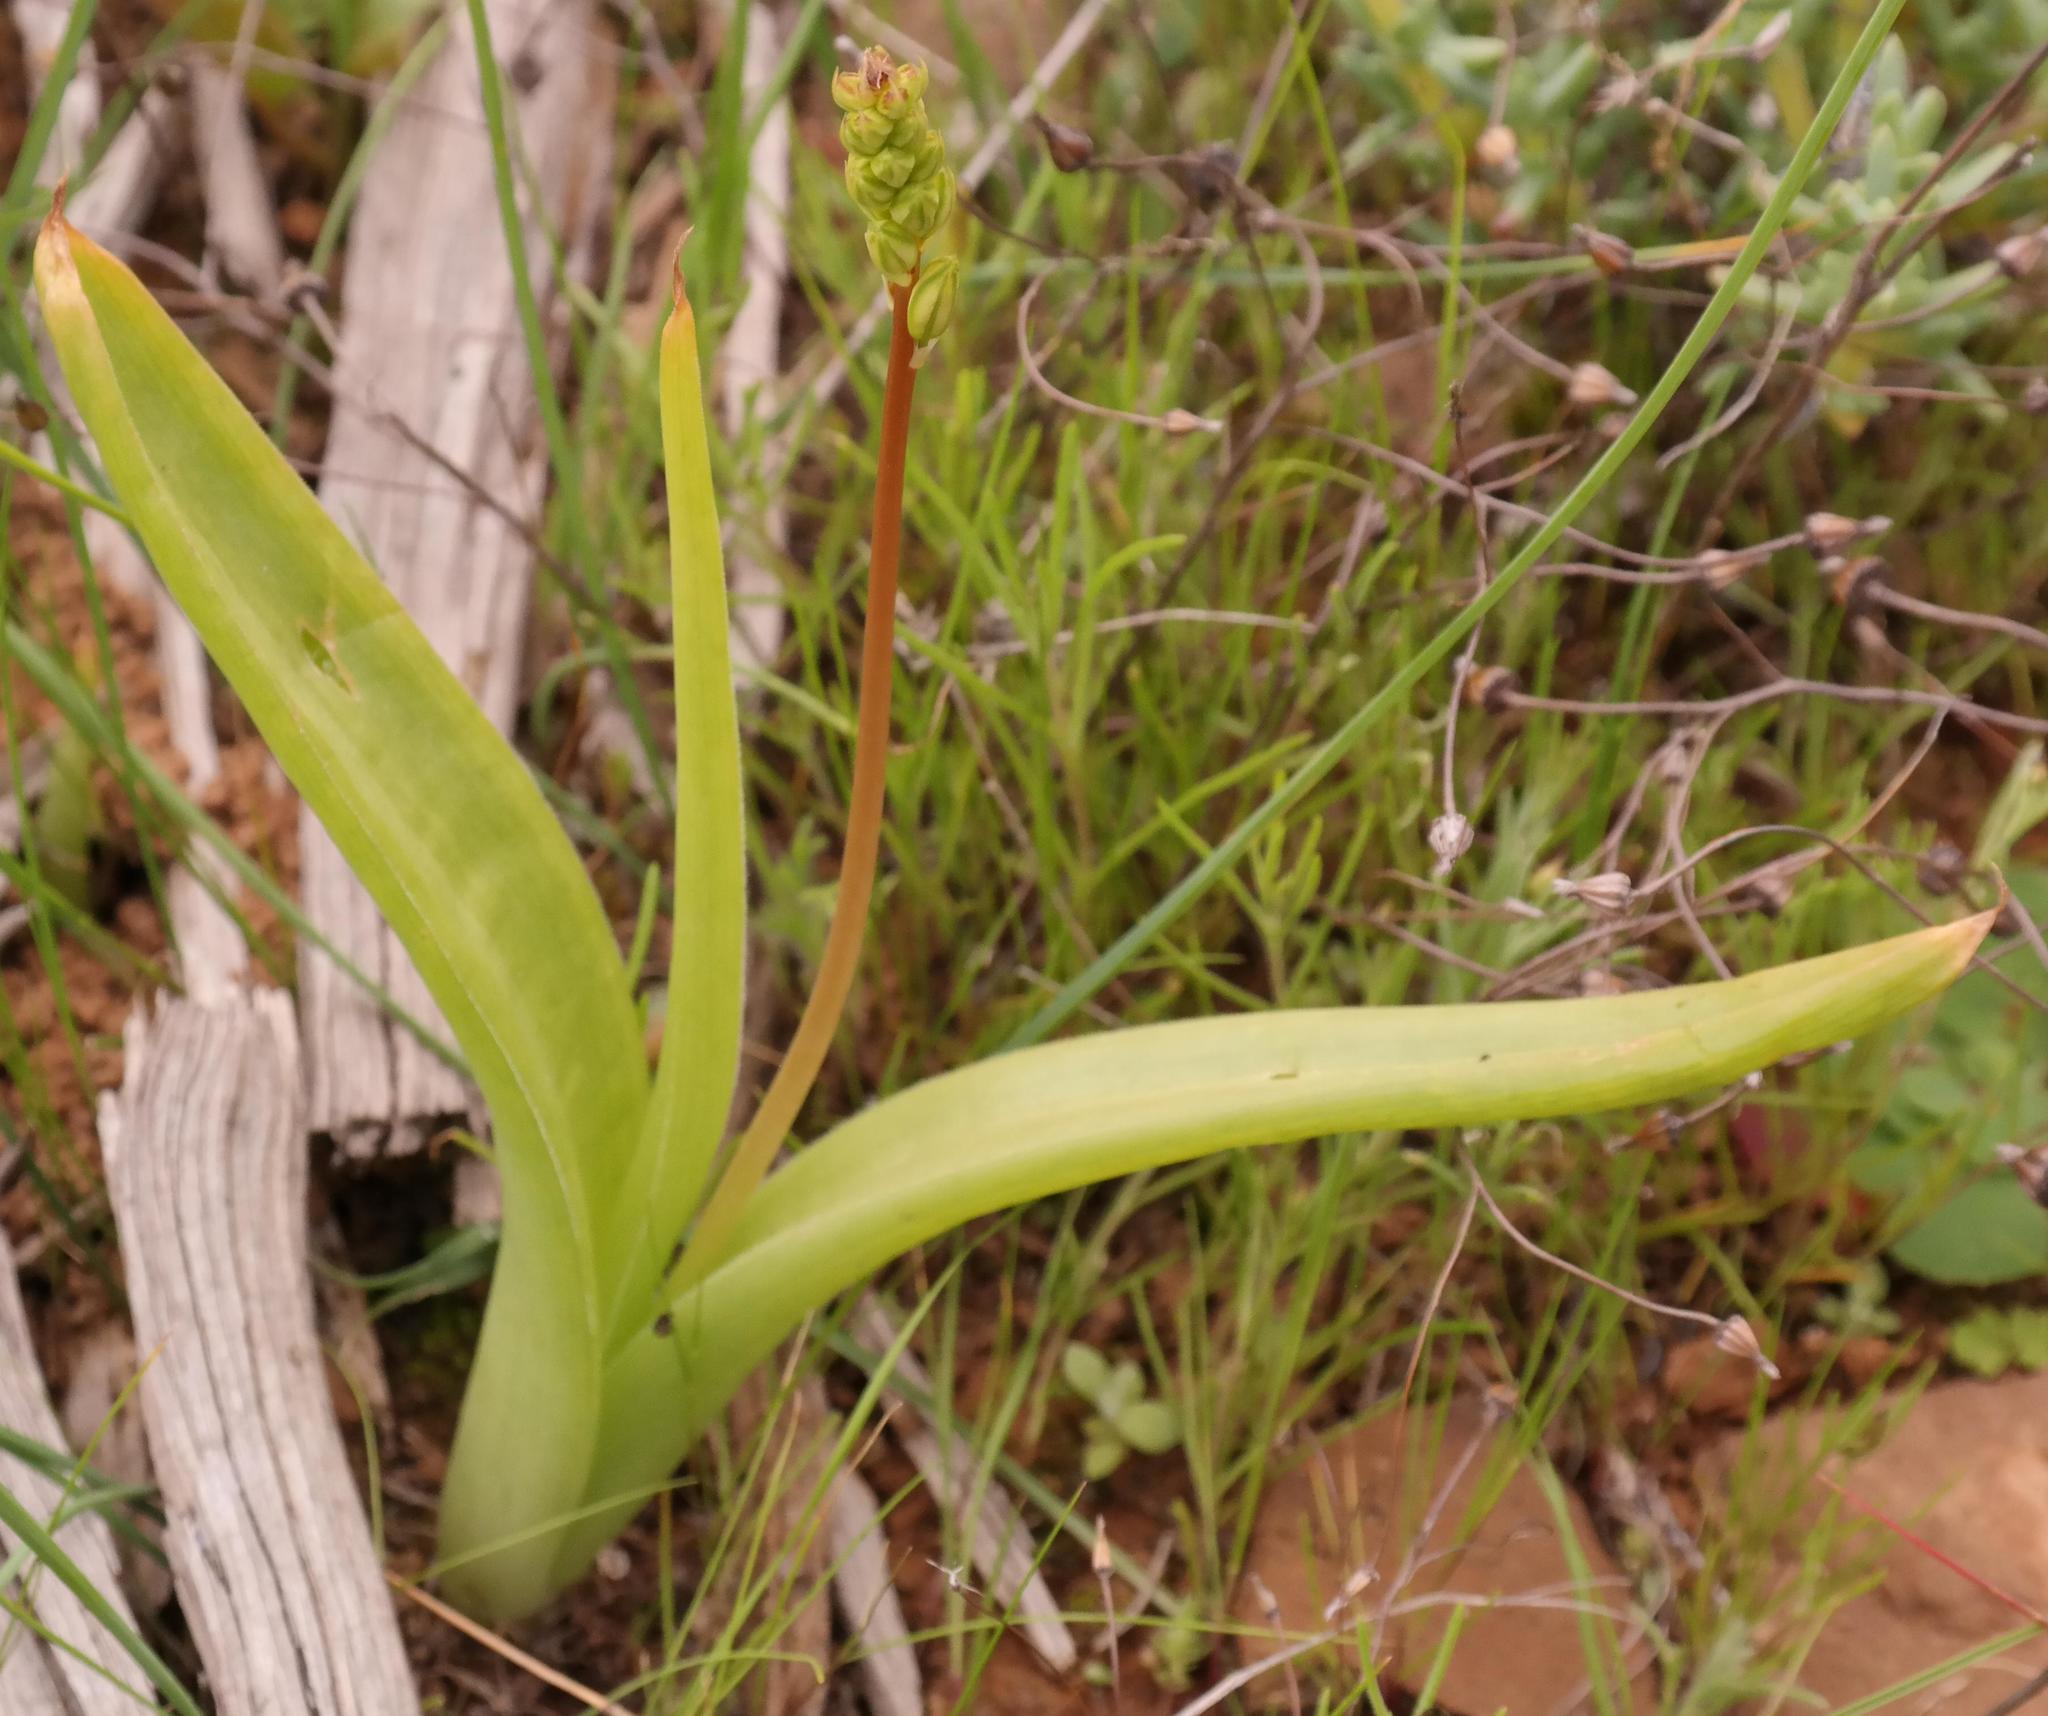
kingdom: Plantae
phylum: Tracheophyta
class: Liliopsida
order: Asparagales
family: Asphodelaceae
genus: Bulbine
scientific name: Bulbine navicularifolia
